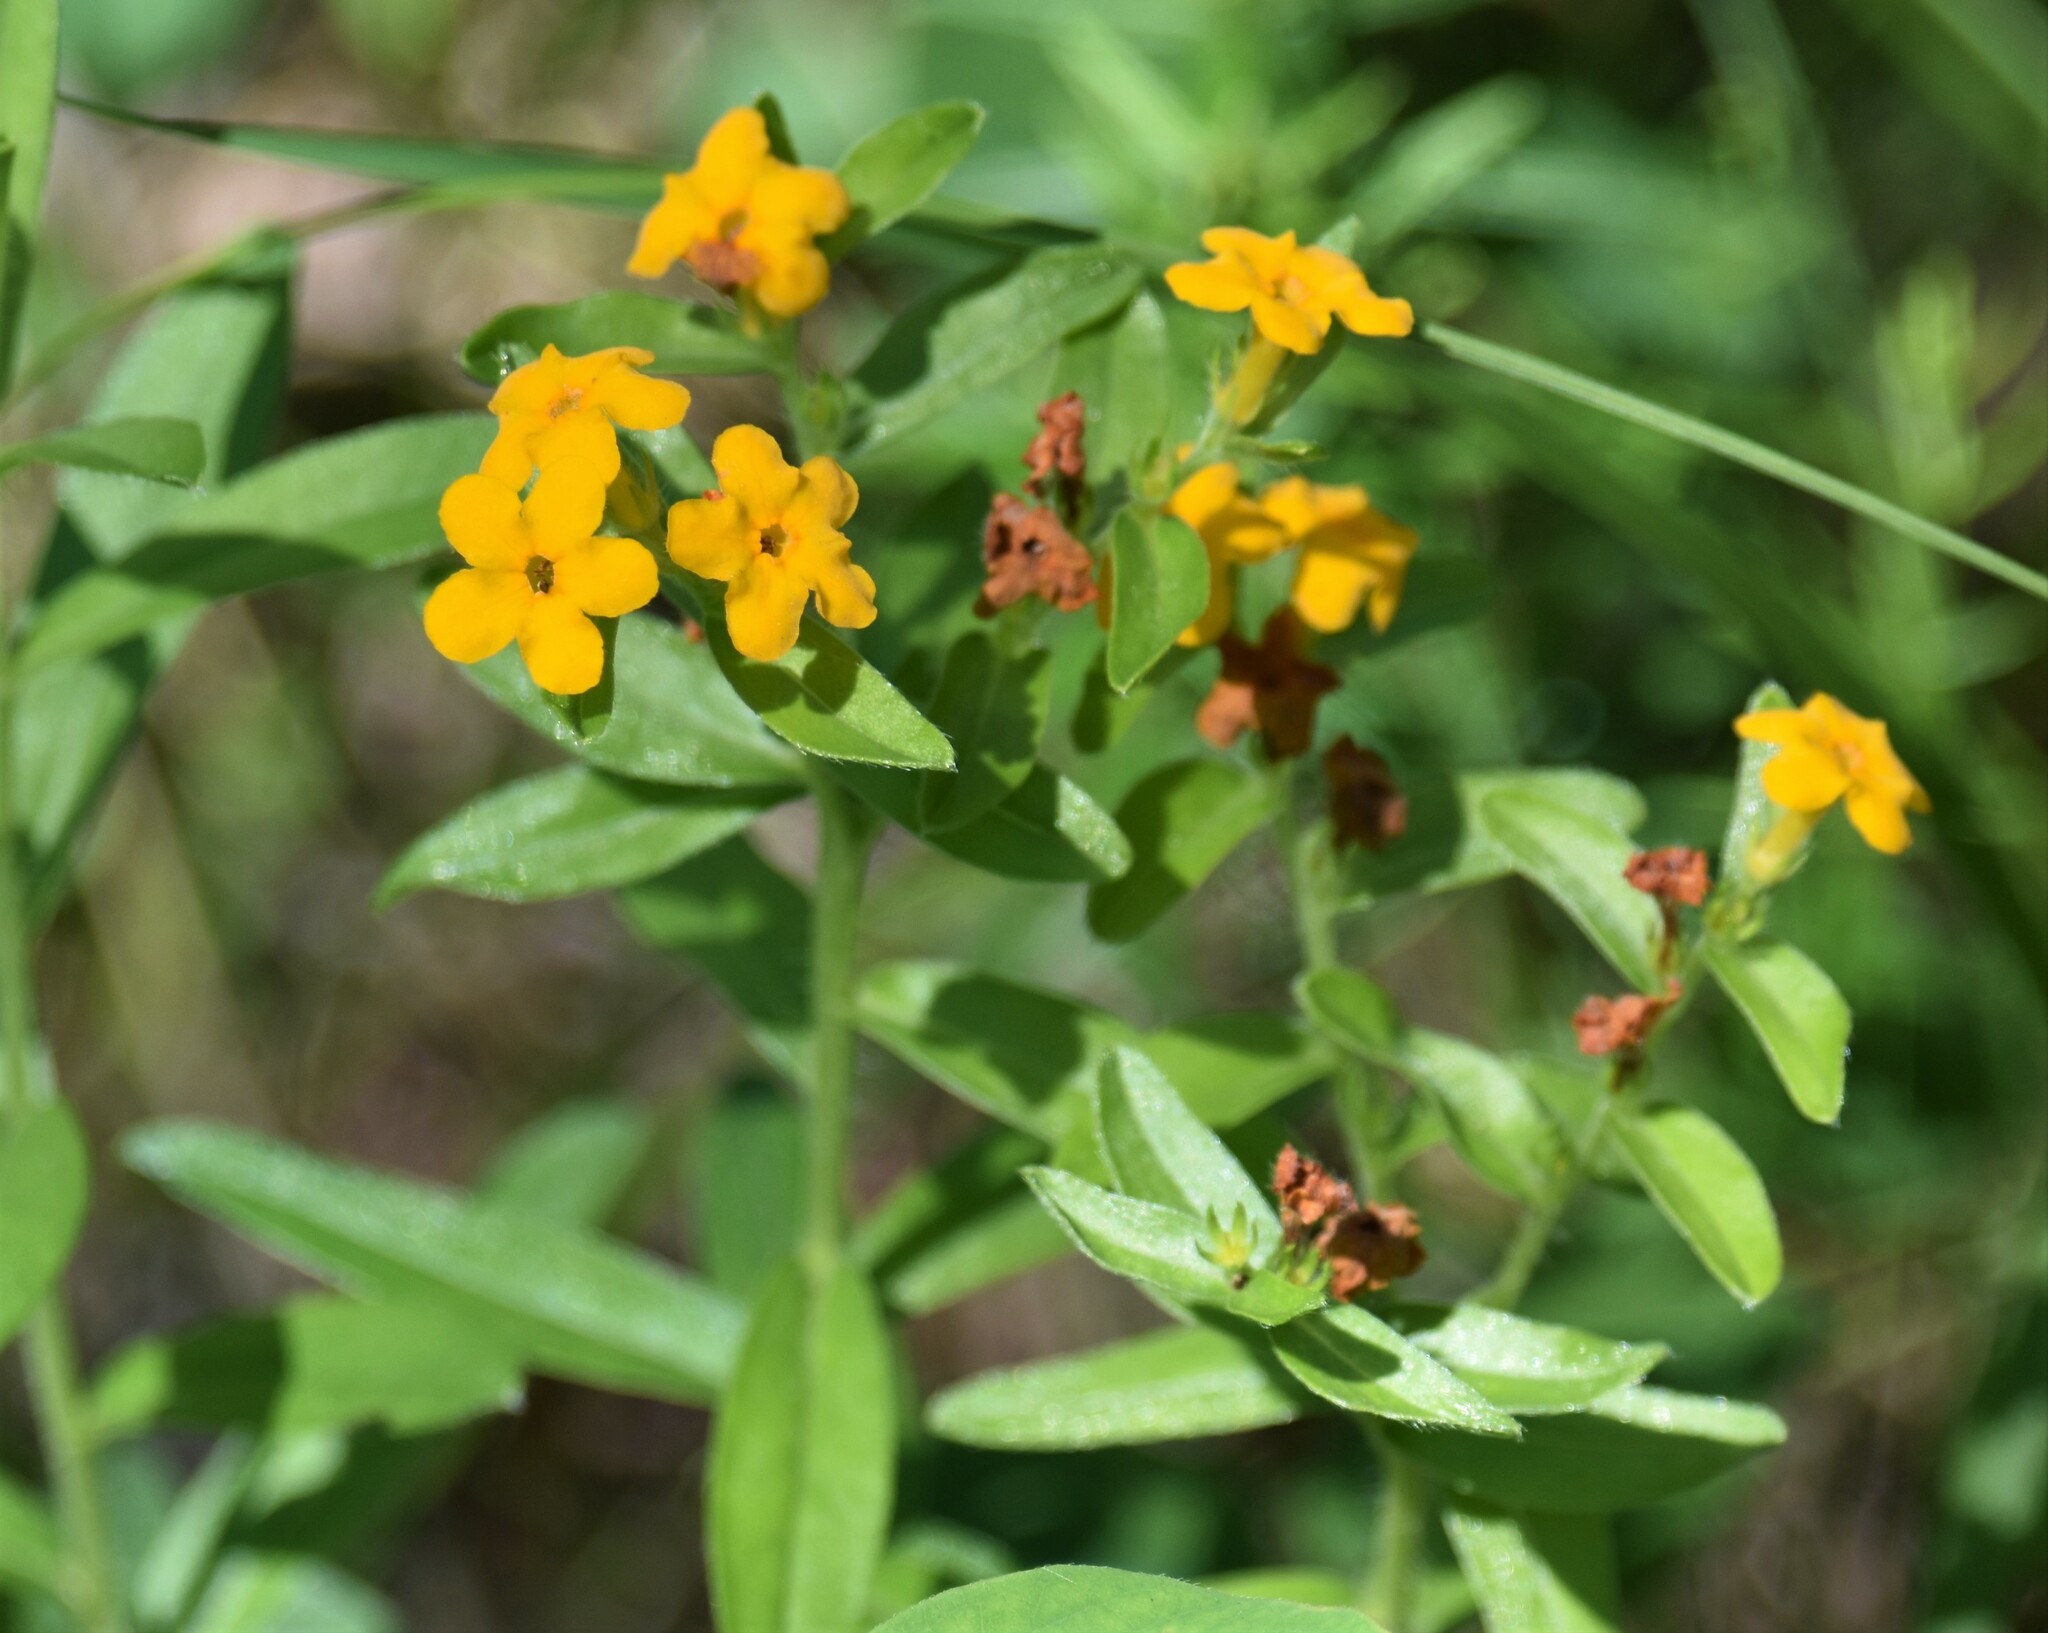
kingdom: Plantae
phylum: Tracheophyta
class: Magnoliopsida
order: Boraginales
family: Boraginaceae
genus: Lithospermum
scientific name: Lithospermum canescens
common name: Hoary puccoon
